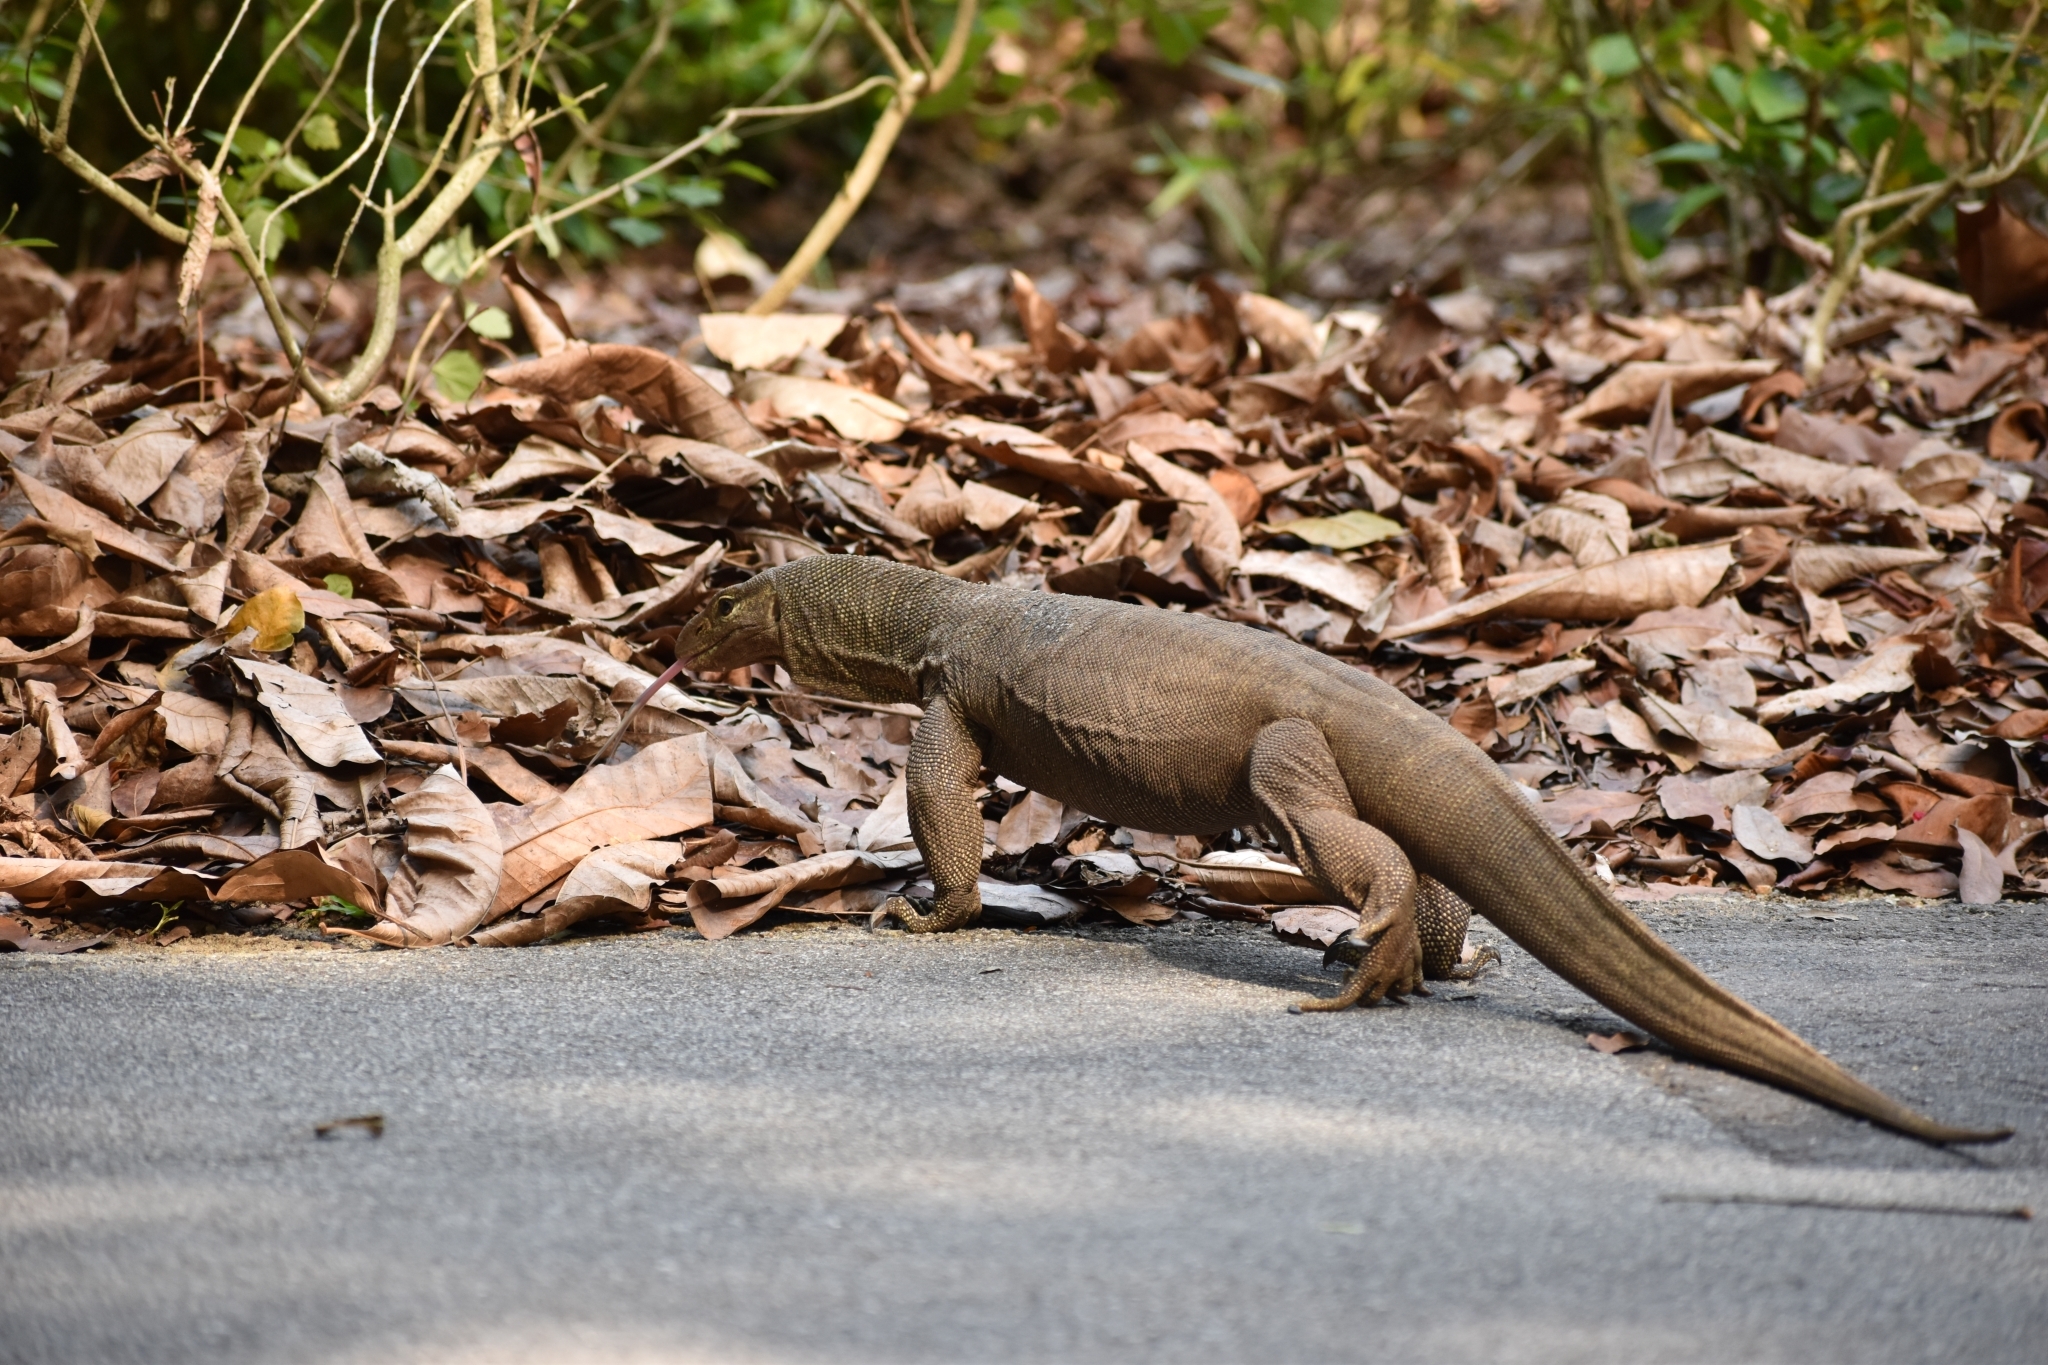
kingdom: Animalia
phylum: Chordata
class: Squamata
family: Varanidae
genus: Varanus
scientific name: Varanus nebulosus
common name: Clouded monitor
